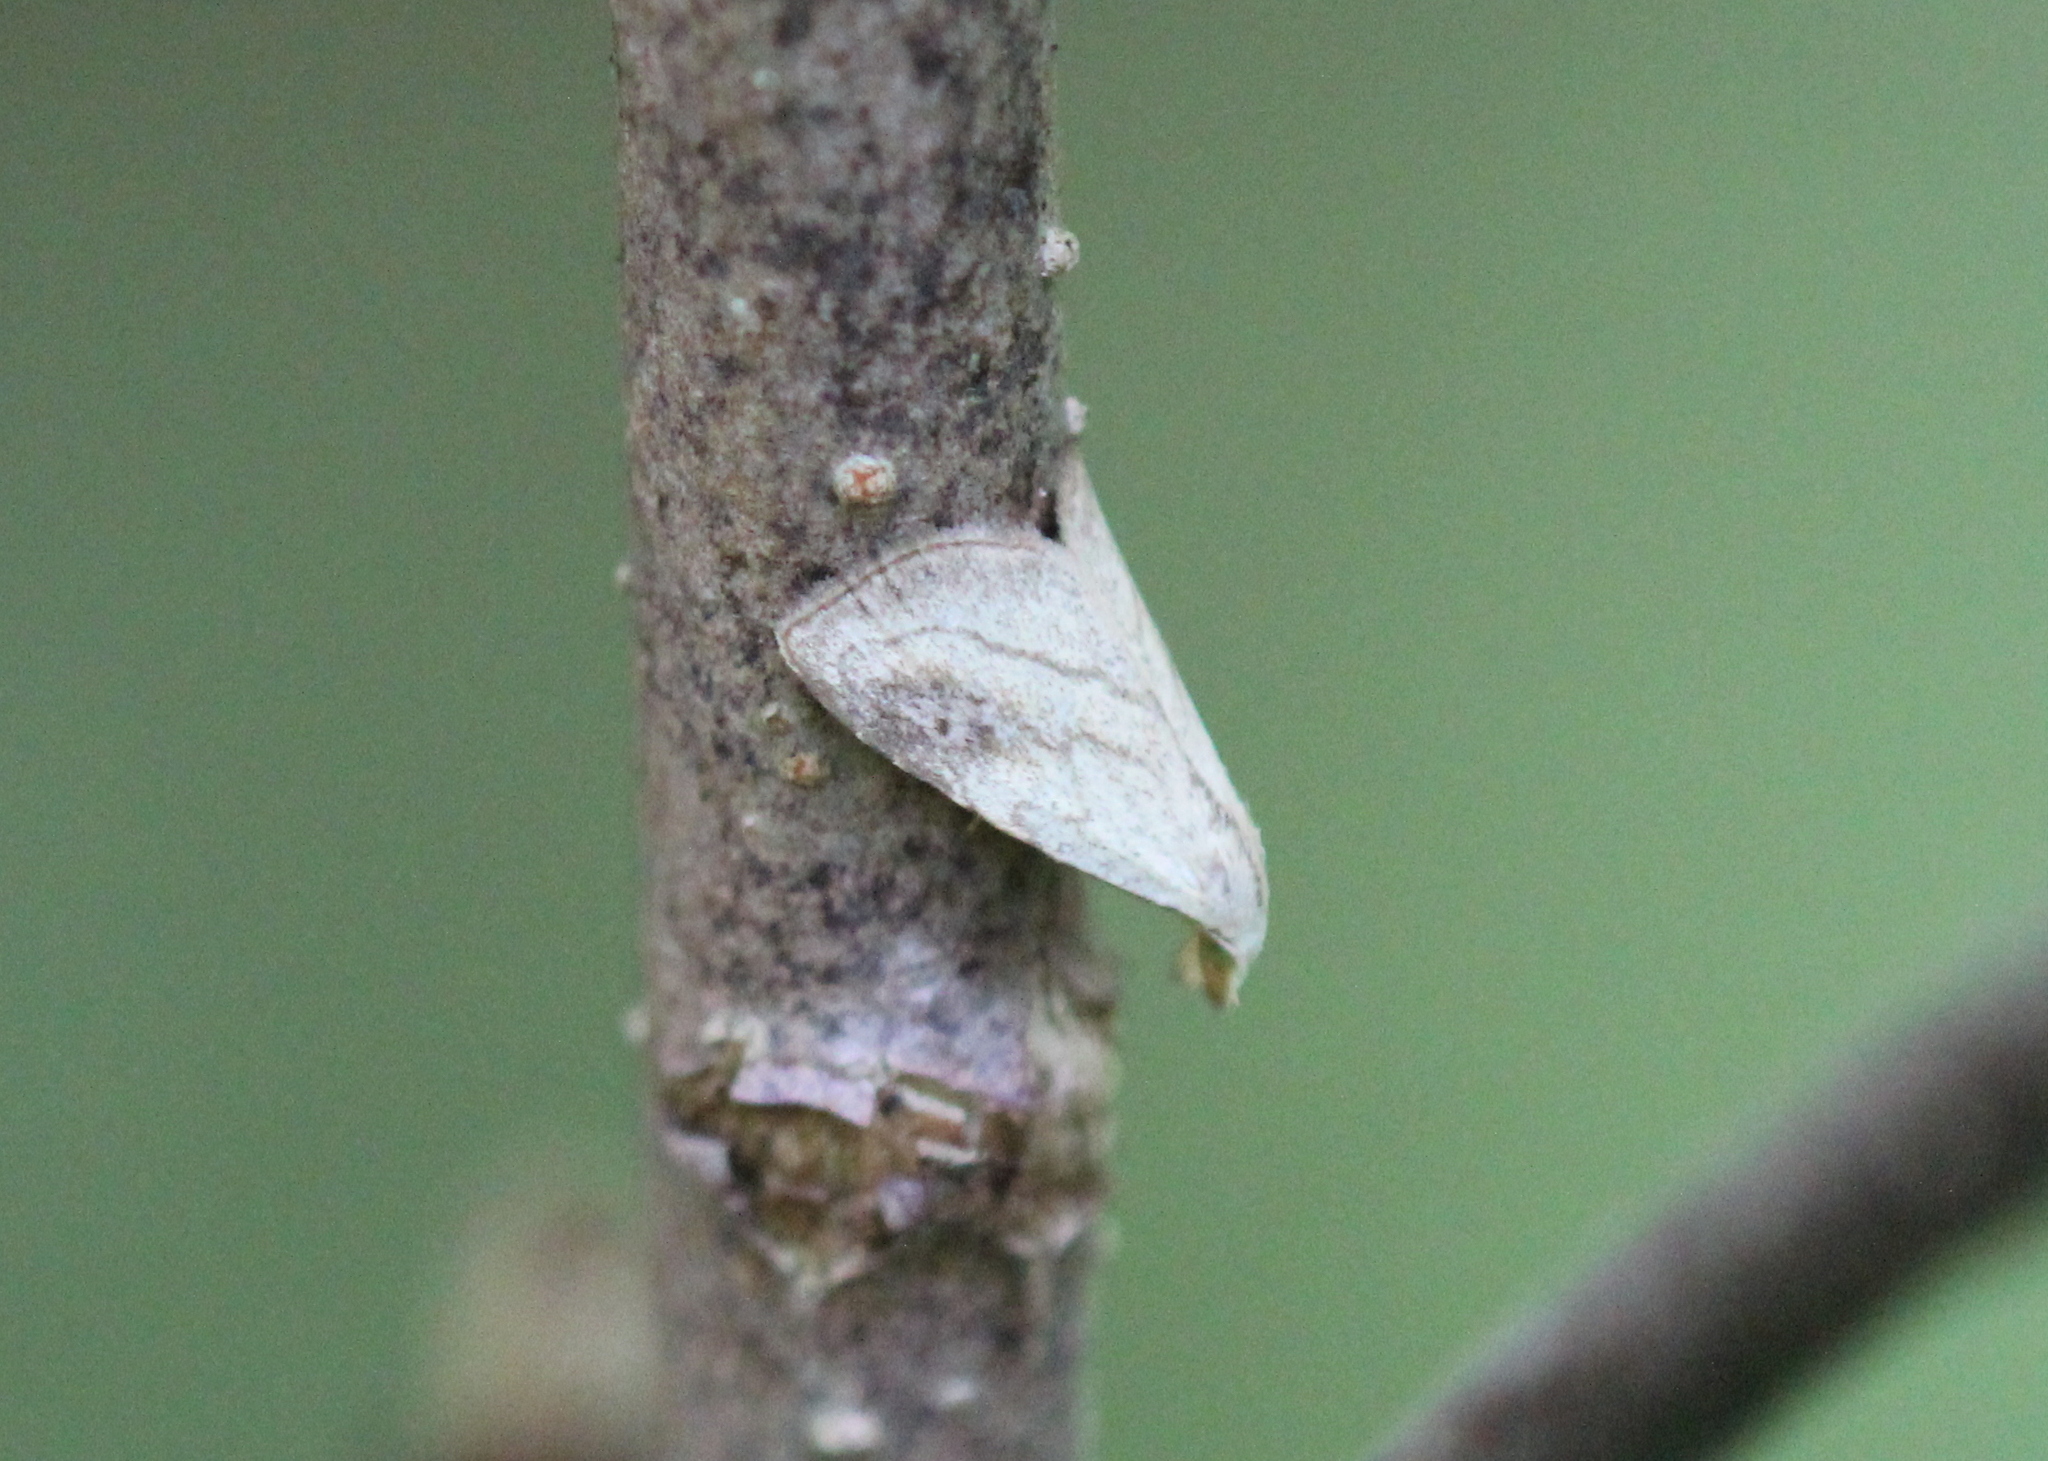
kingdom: Animalia
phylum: Arthropoda
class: Insecta
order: Lepidoptera
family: Erebidae
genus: Rivula
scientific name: Rivula propinqualis
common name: Spotted grass moth
